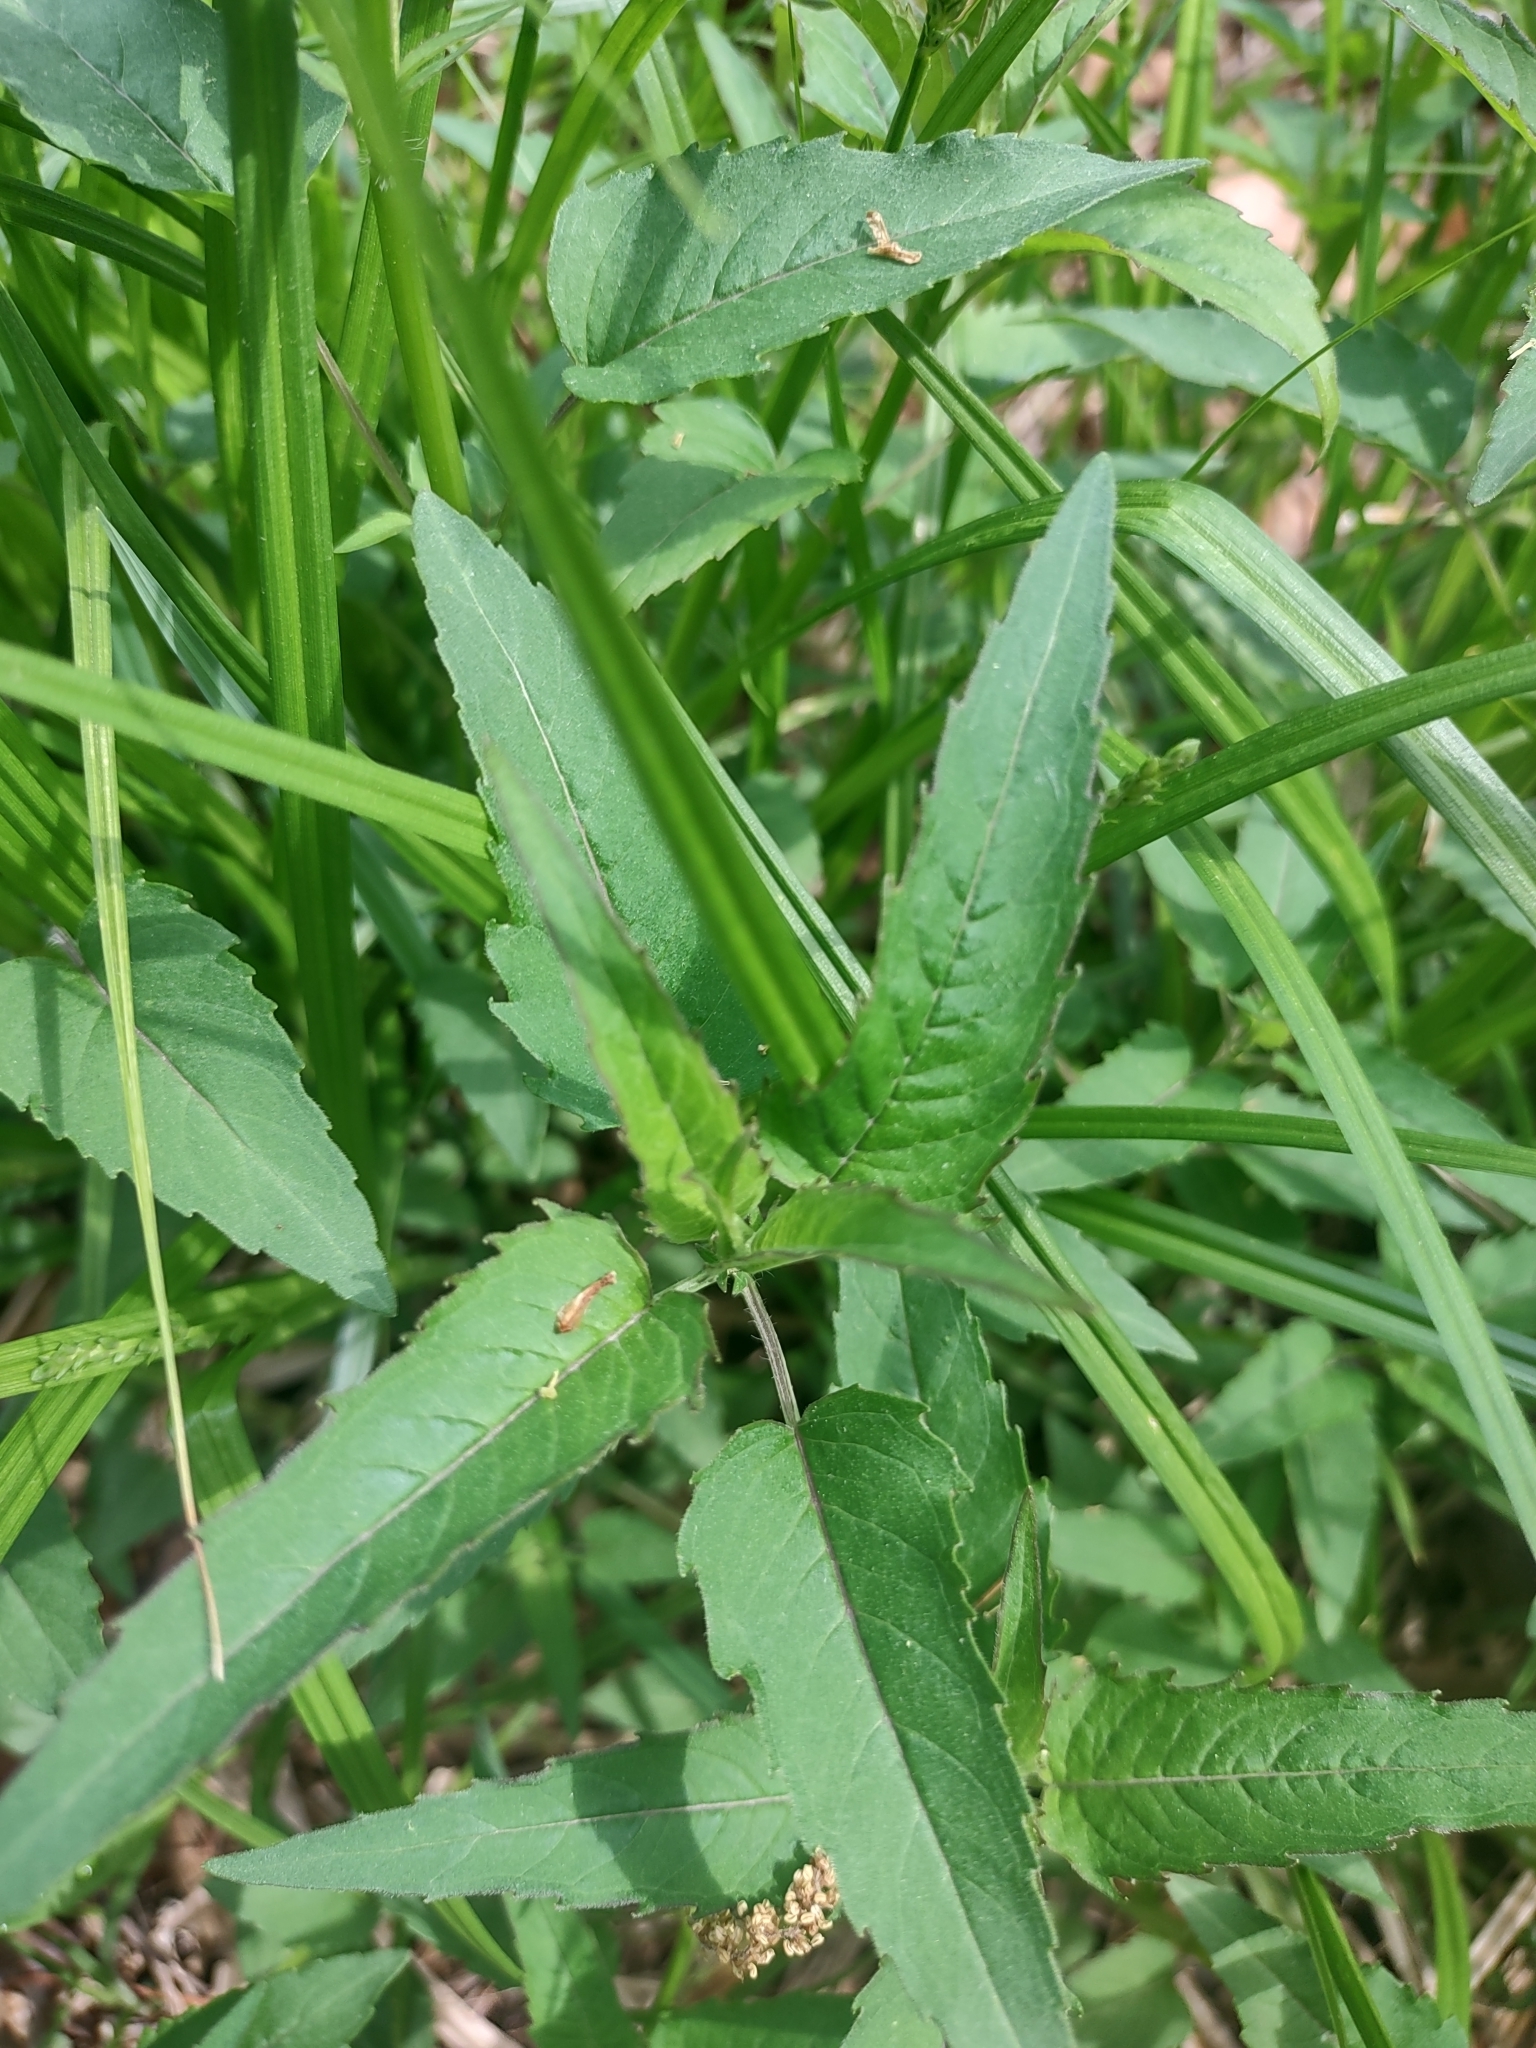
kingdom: Plantae
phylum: Tracheophyta
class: Magnoliopsida
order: Lamiales
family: Lamiaceae
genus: Monarda
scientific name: Monarda fistulosa
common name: Purple beebalm
